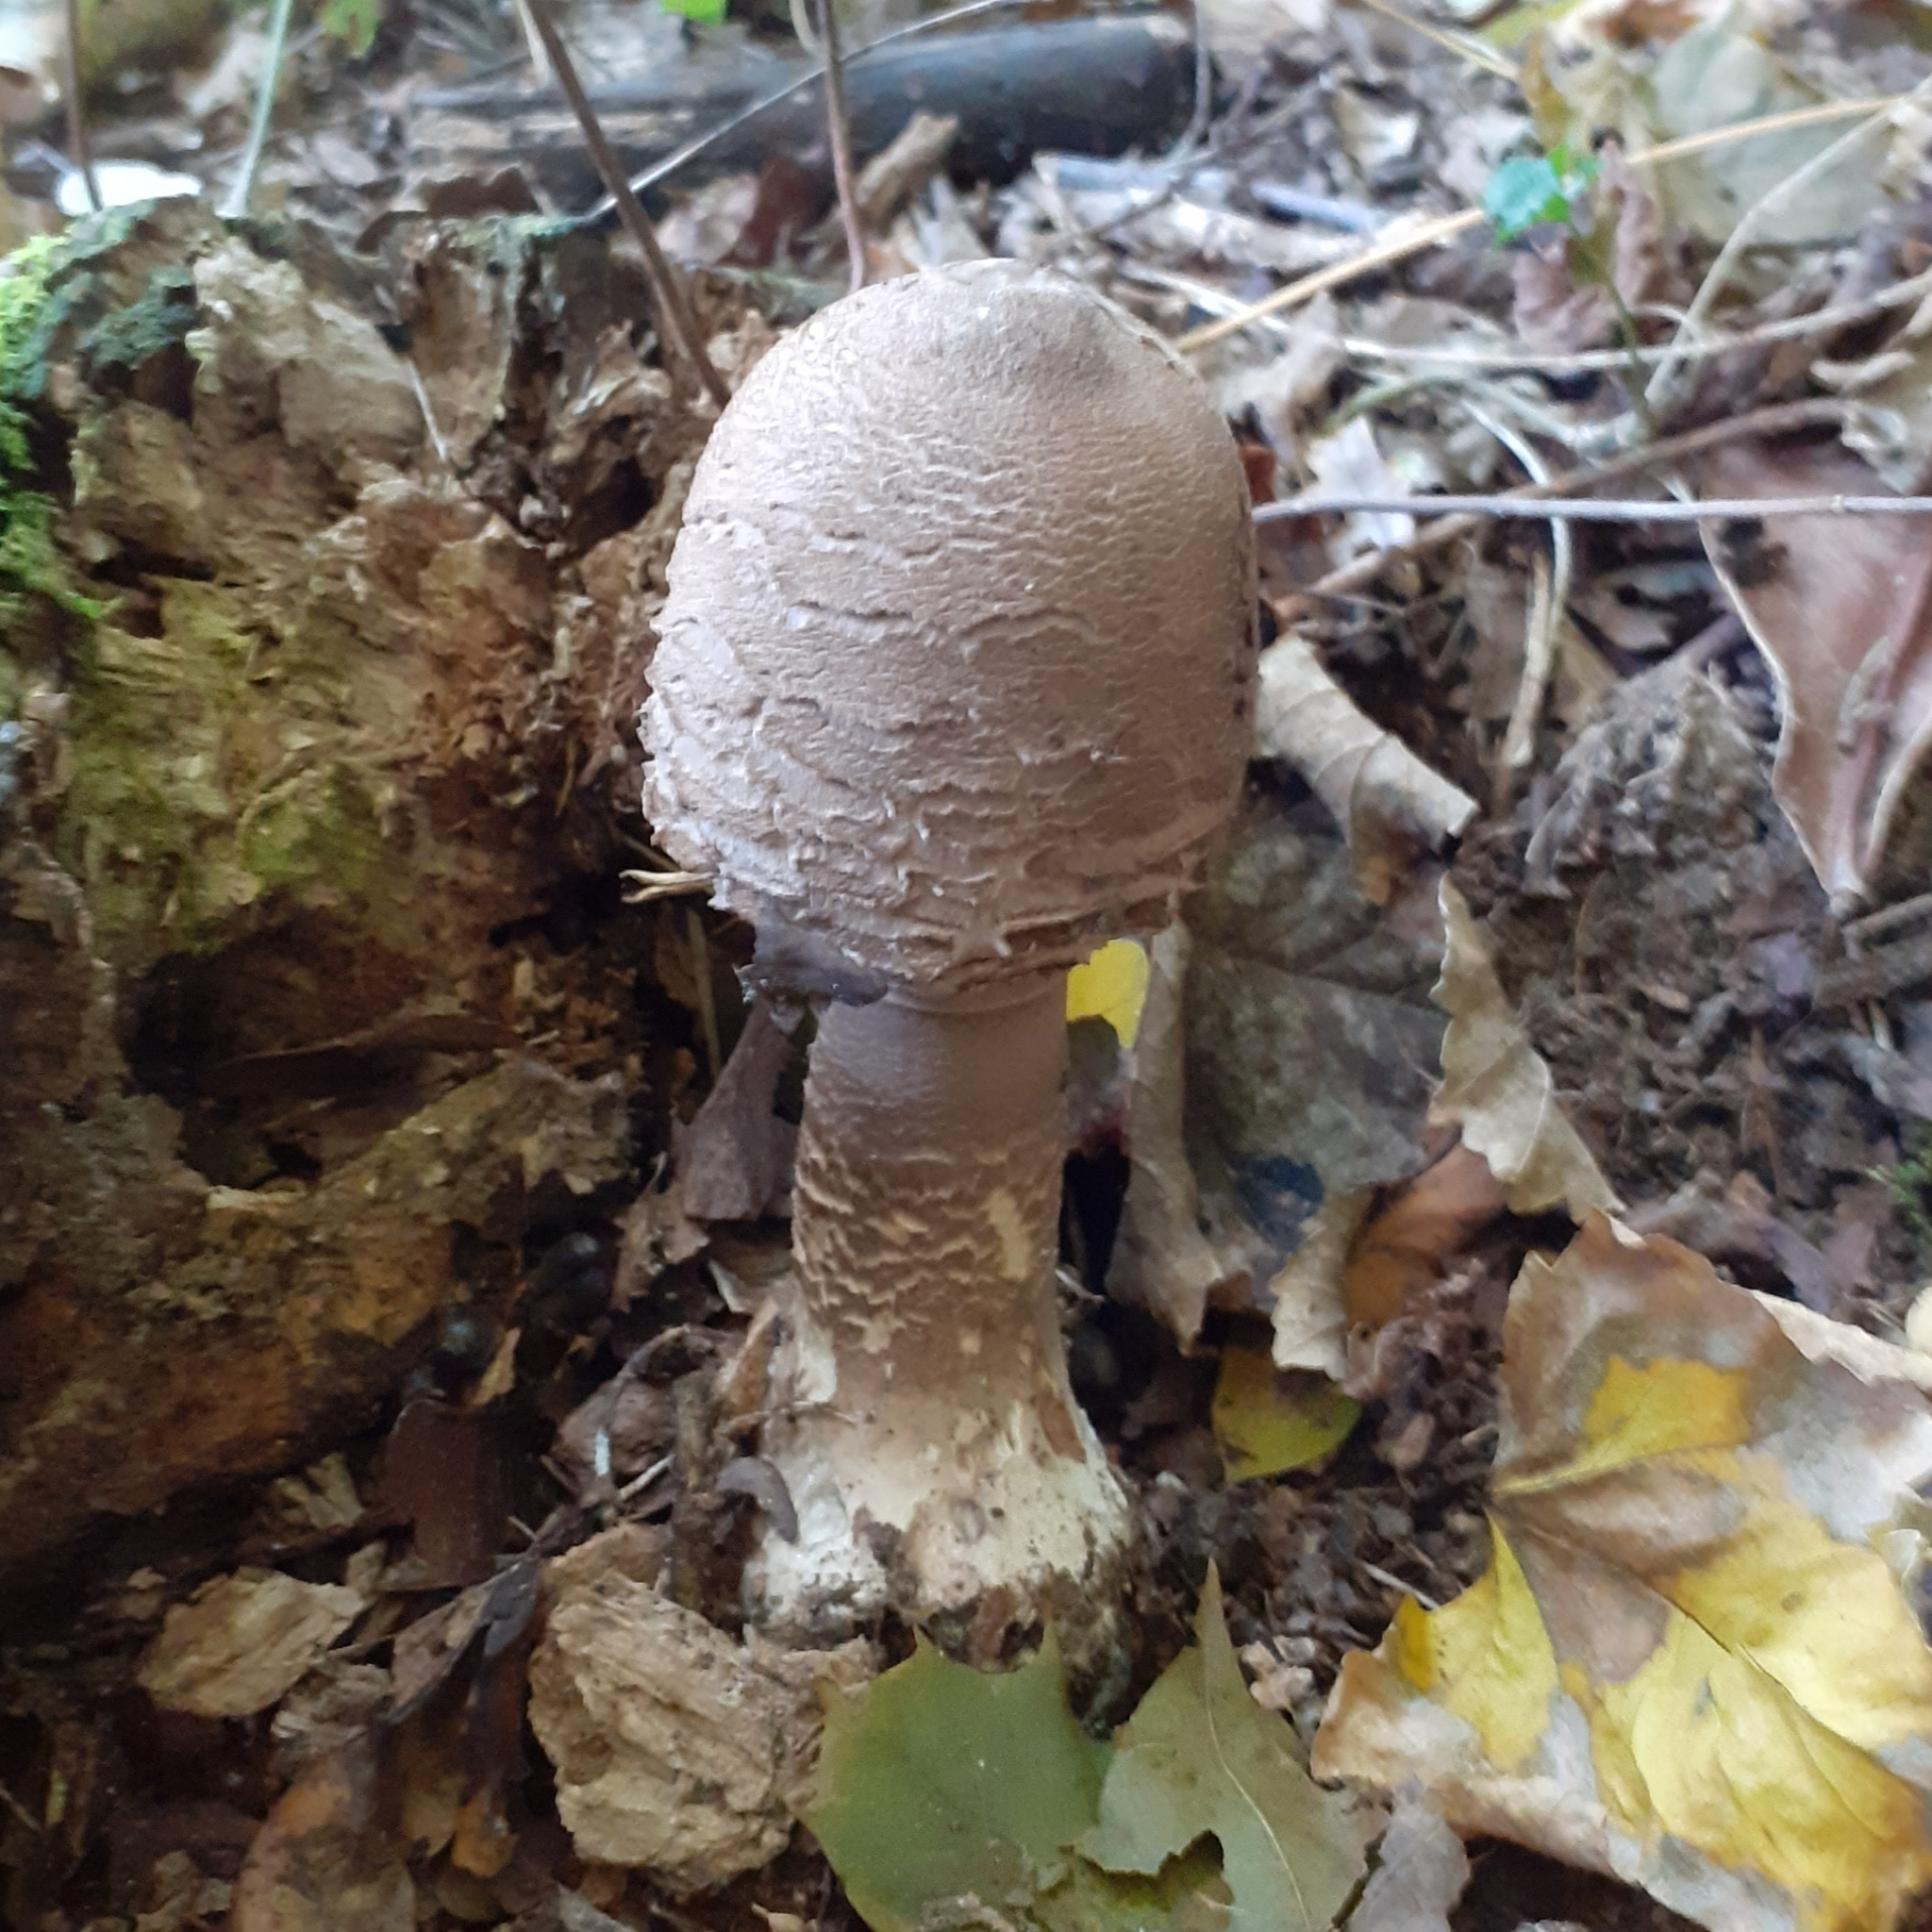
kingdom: Fungi
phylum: Basidiomycota
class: Agaricomycetes
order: Agaricales
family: Agaricaceae
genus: Macrolepiota
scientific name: Macrolepiota procera
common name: Parasol
